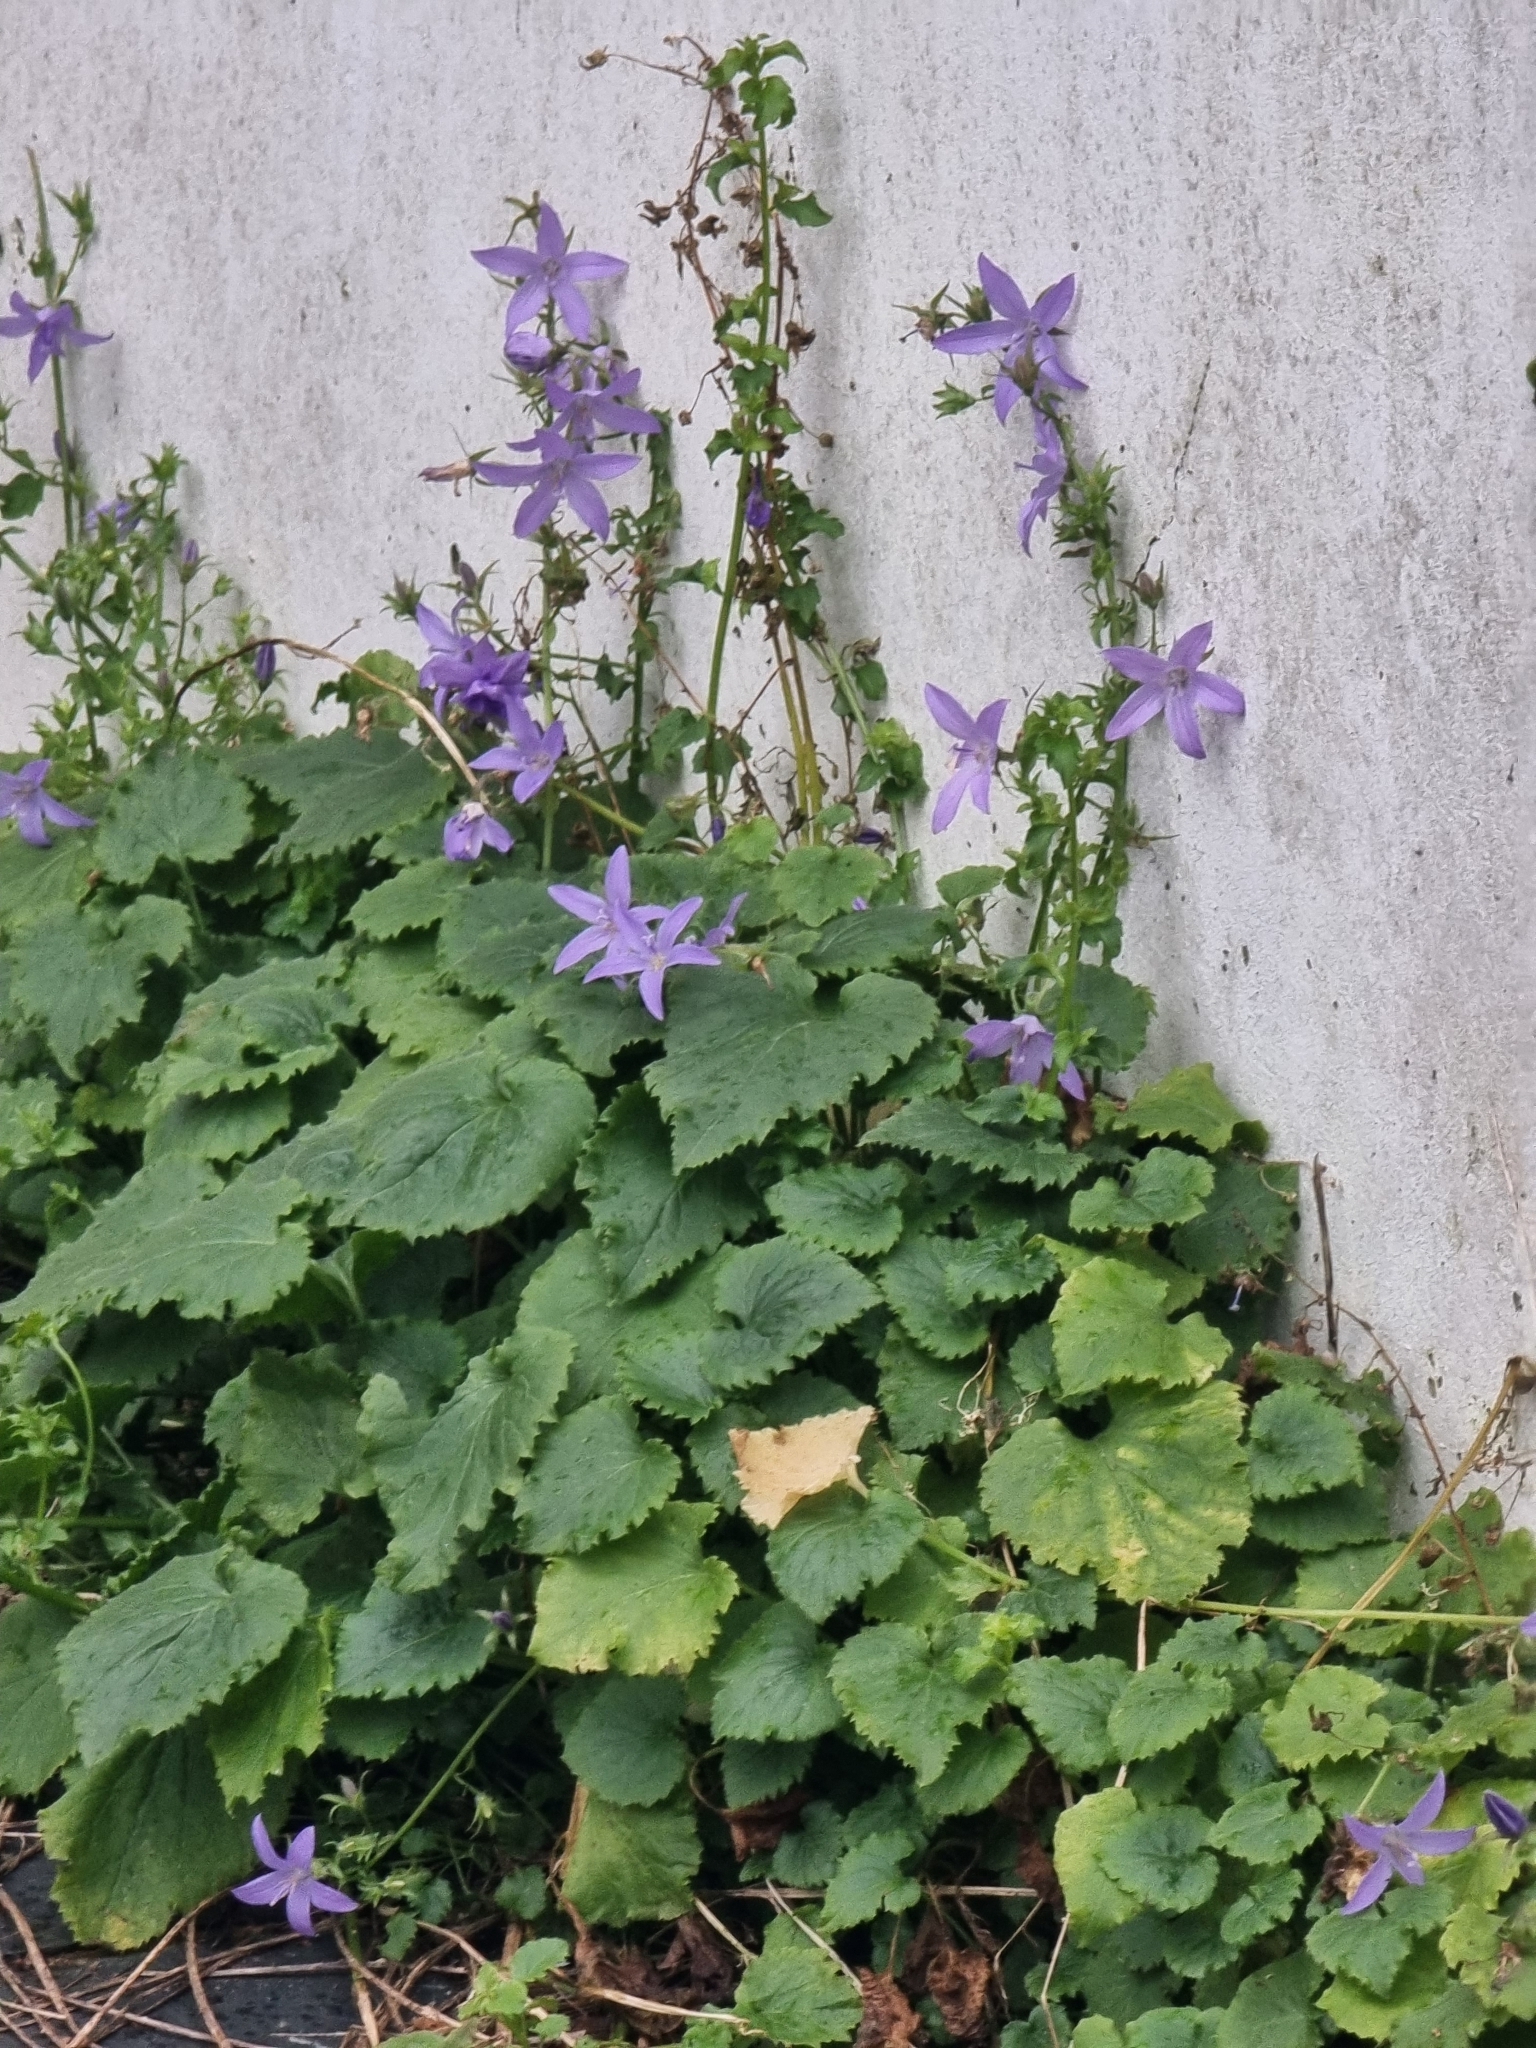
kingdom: Plantae
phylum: Tracheophyta
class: Magnoliopsida
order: Asterales
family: Campanulaceae
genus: Campanula
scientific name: Campanula poscharskyana
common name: Trailing bellflower
